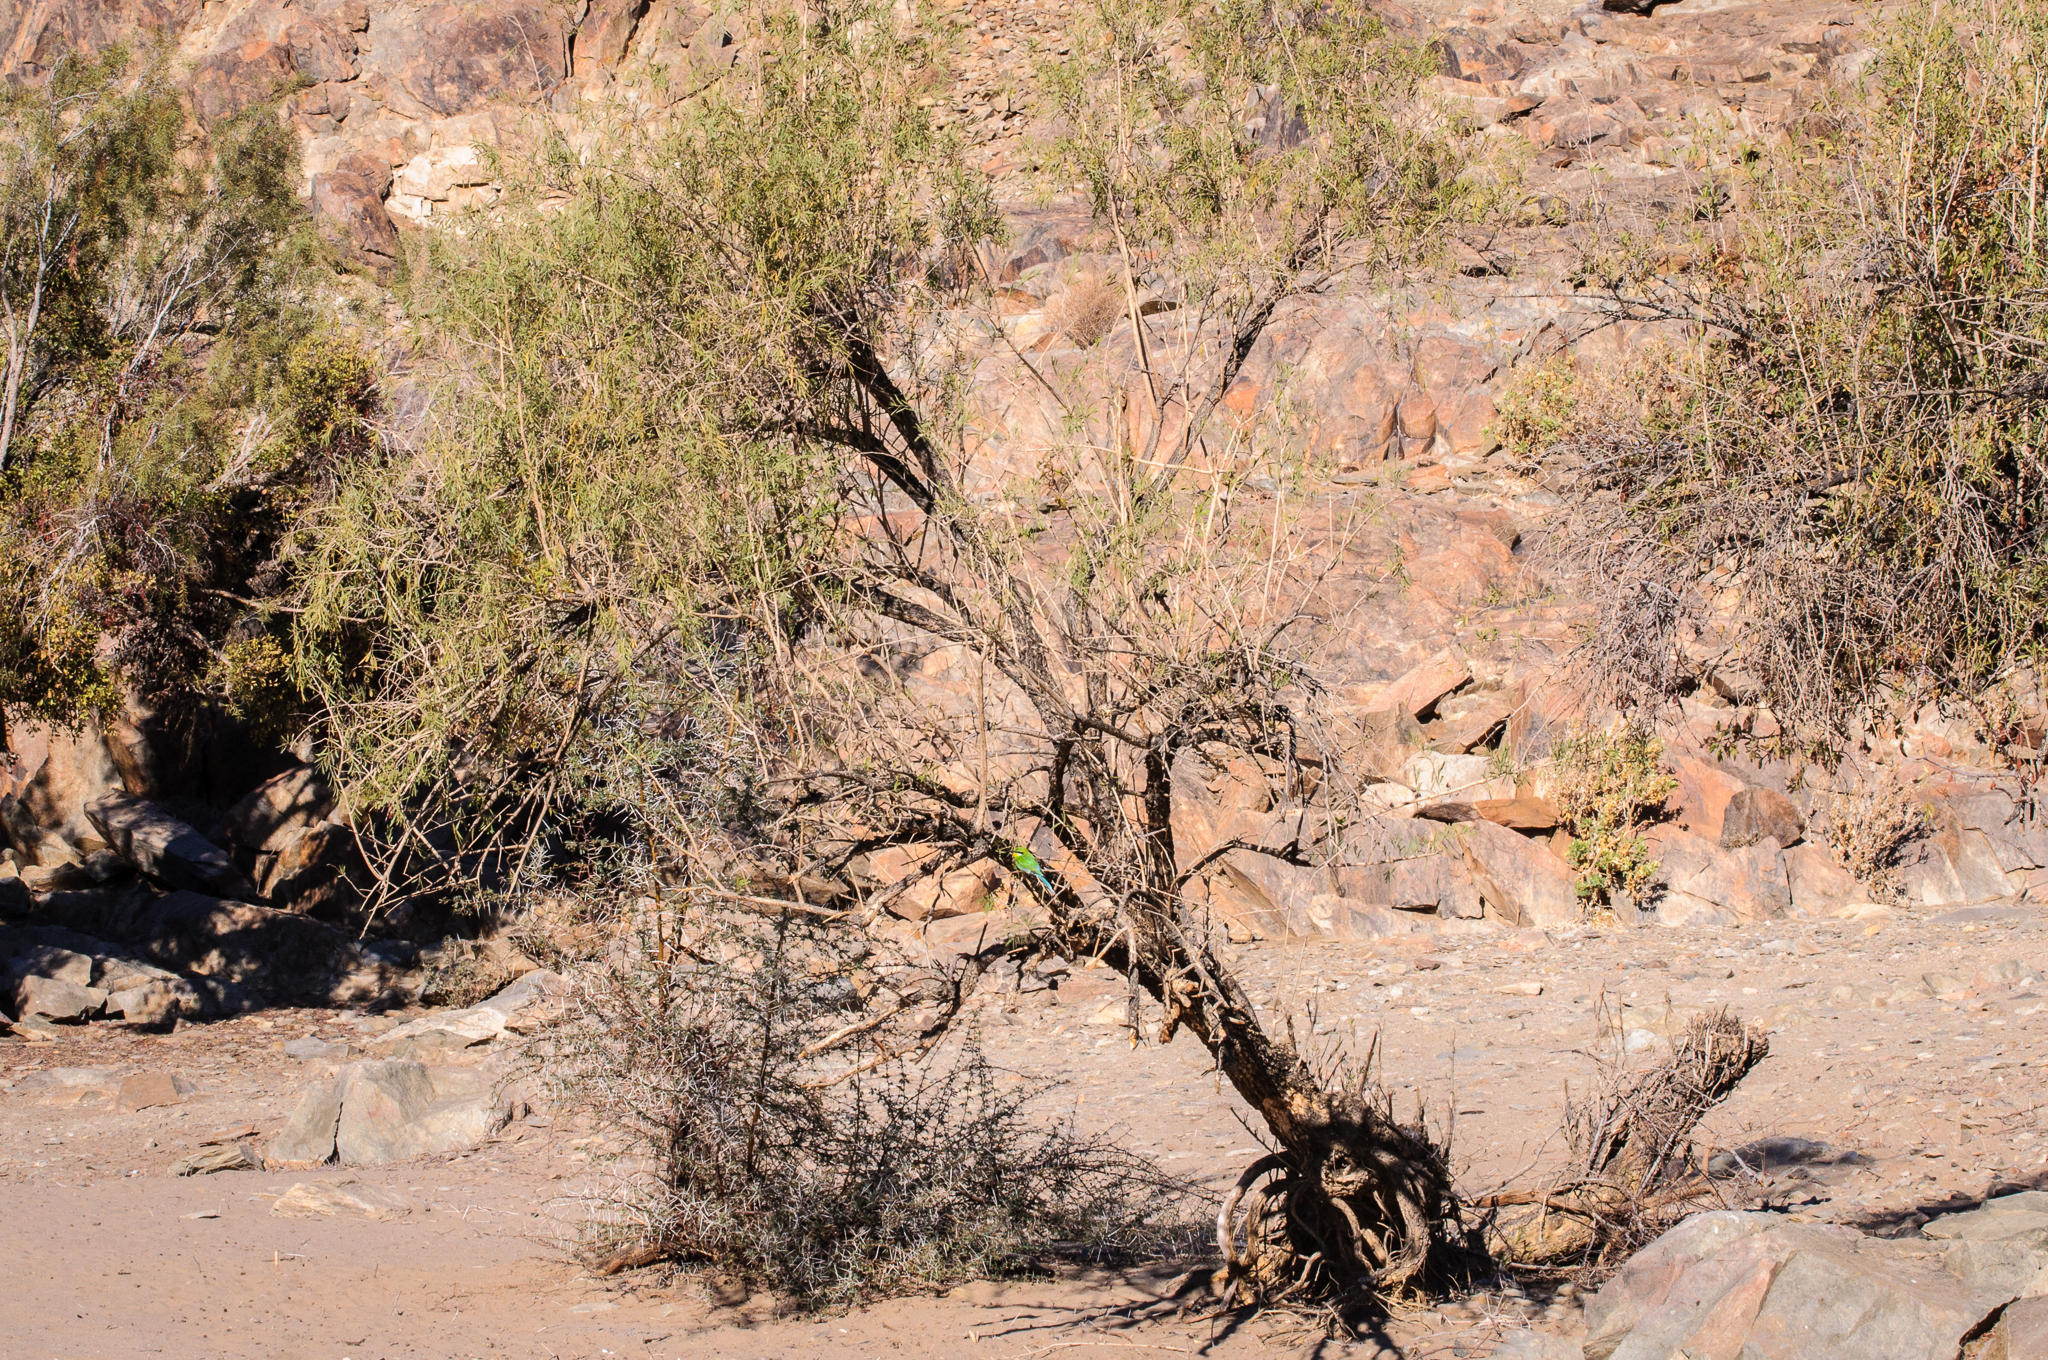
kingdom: Animalia
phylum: Chordata
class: Aves
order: Coraciiformes
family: Meropidae
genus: Merops
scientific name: Merops hirundineus
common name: Swallow-tailed bee-eater
